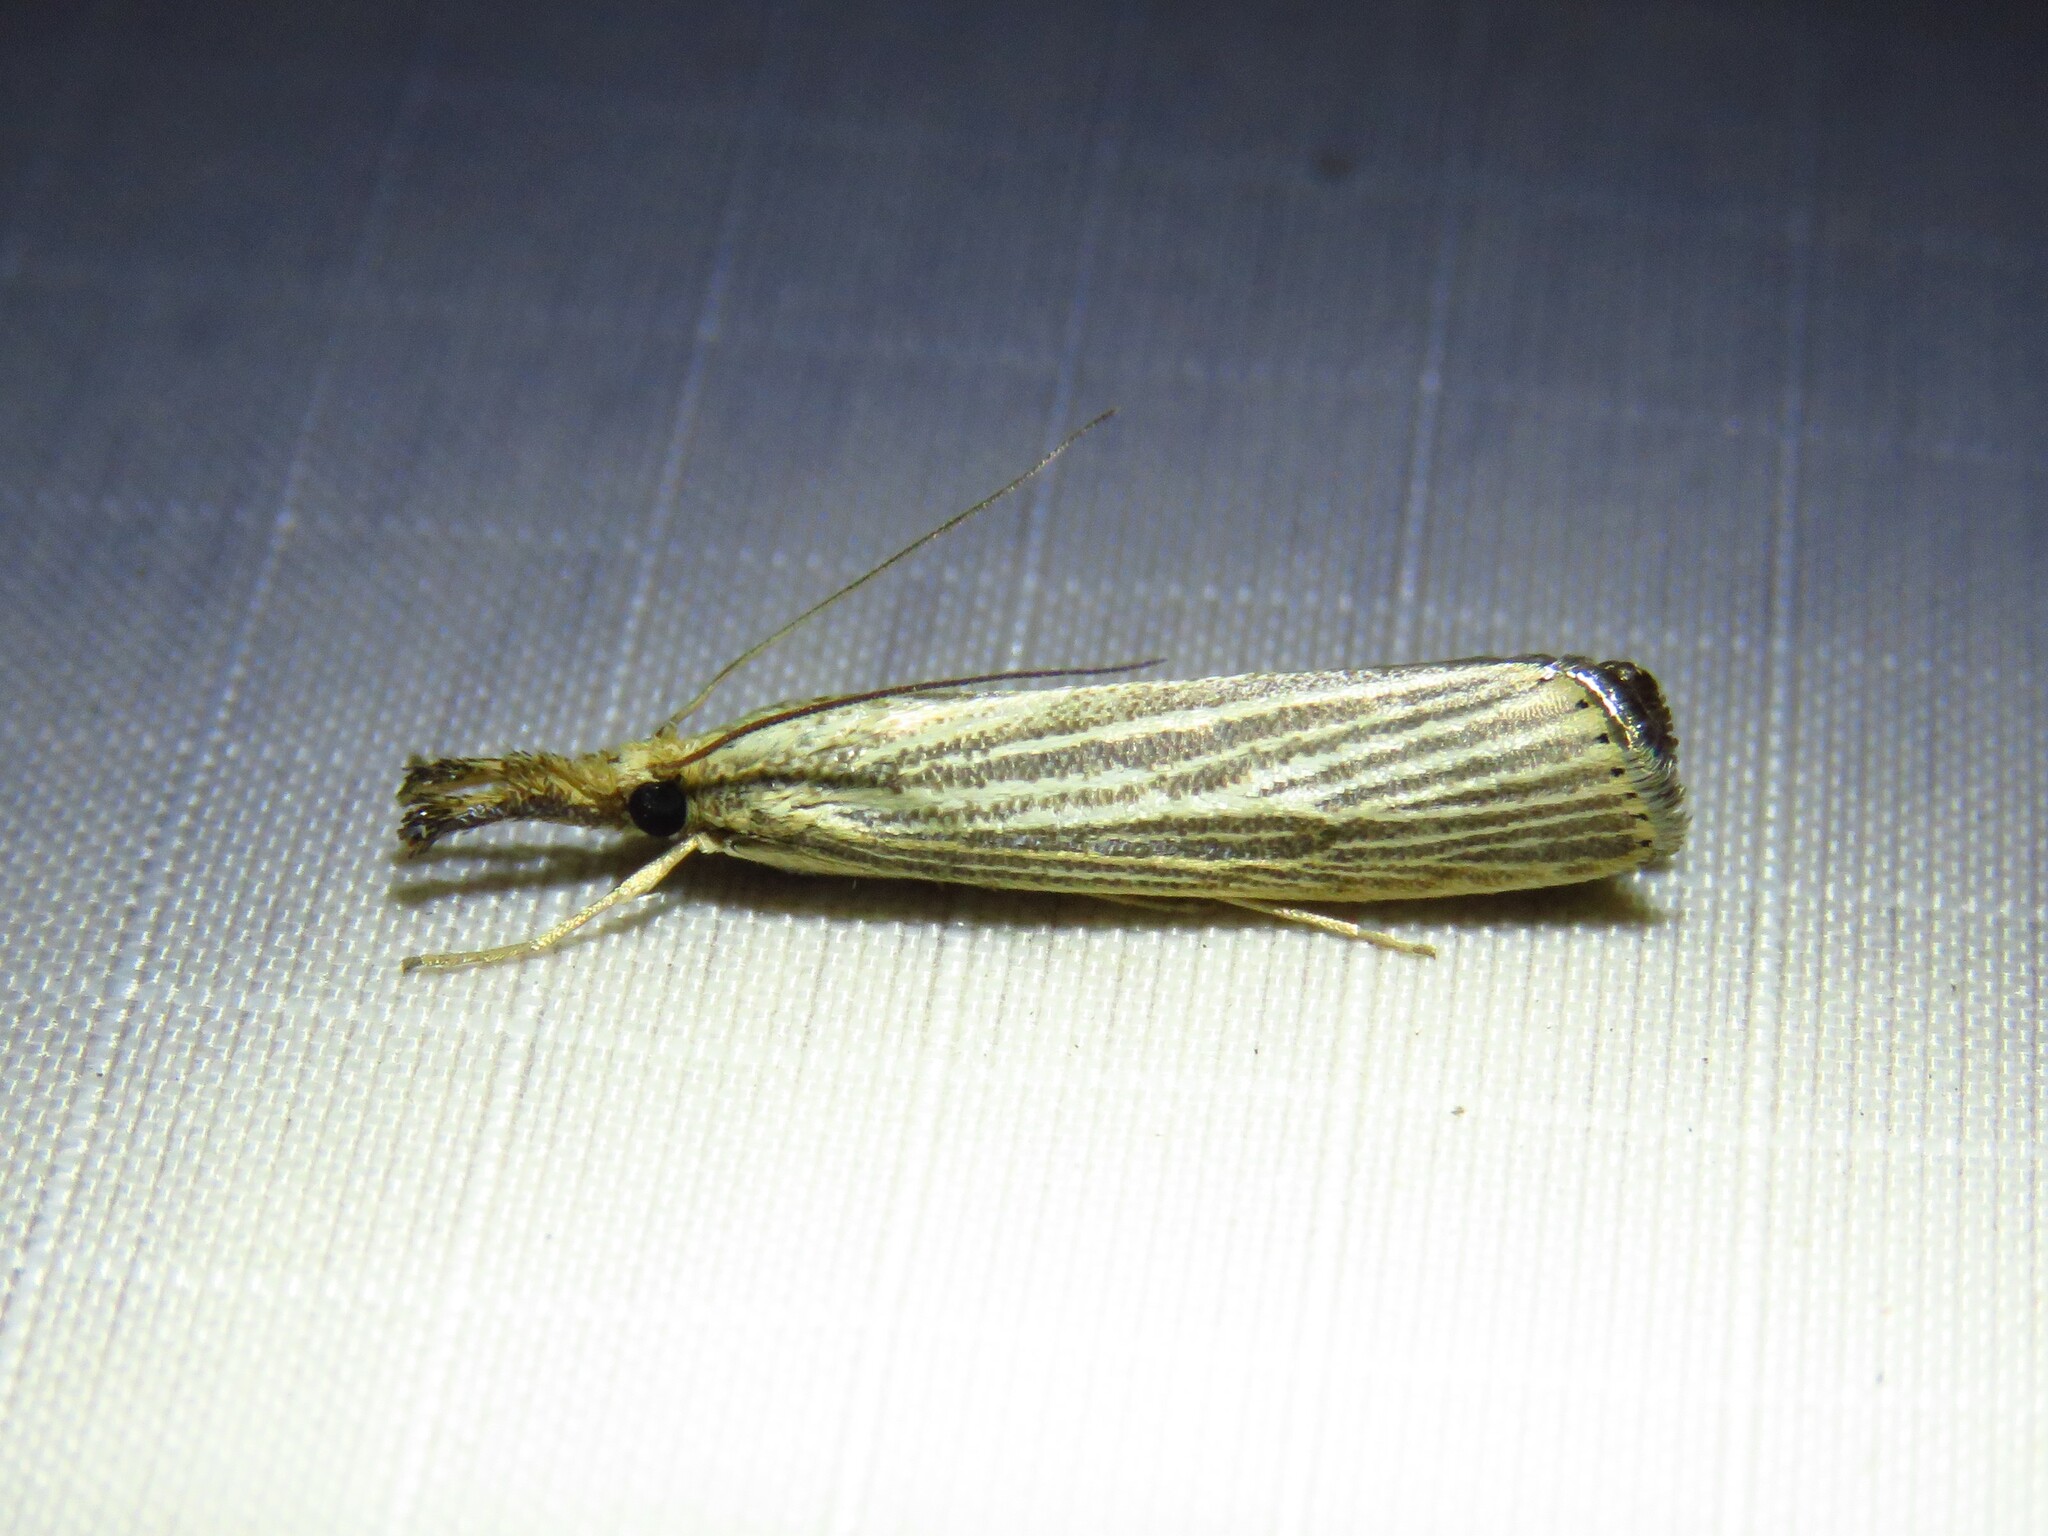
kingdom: Animalia
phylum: Arthropoda
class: Insecta
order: Lepidoptera
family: Crambidae
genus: Agriphila
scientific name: Agriphila vulgivagellus
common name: Vagabond crambus moth
